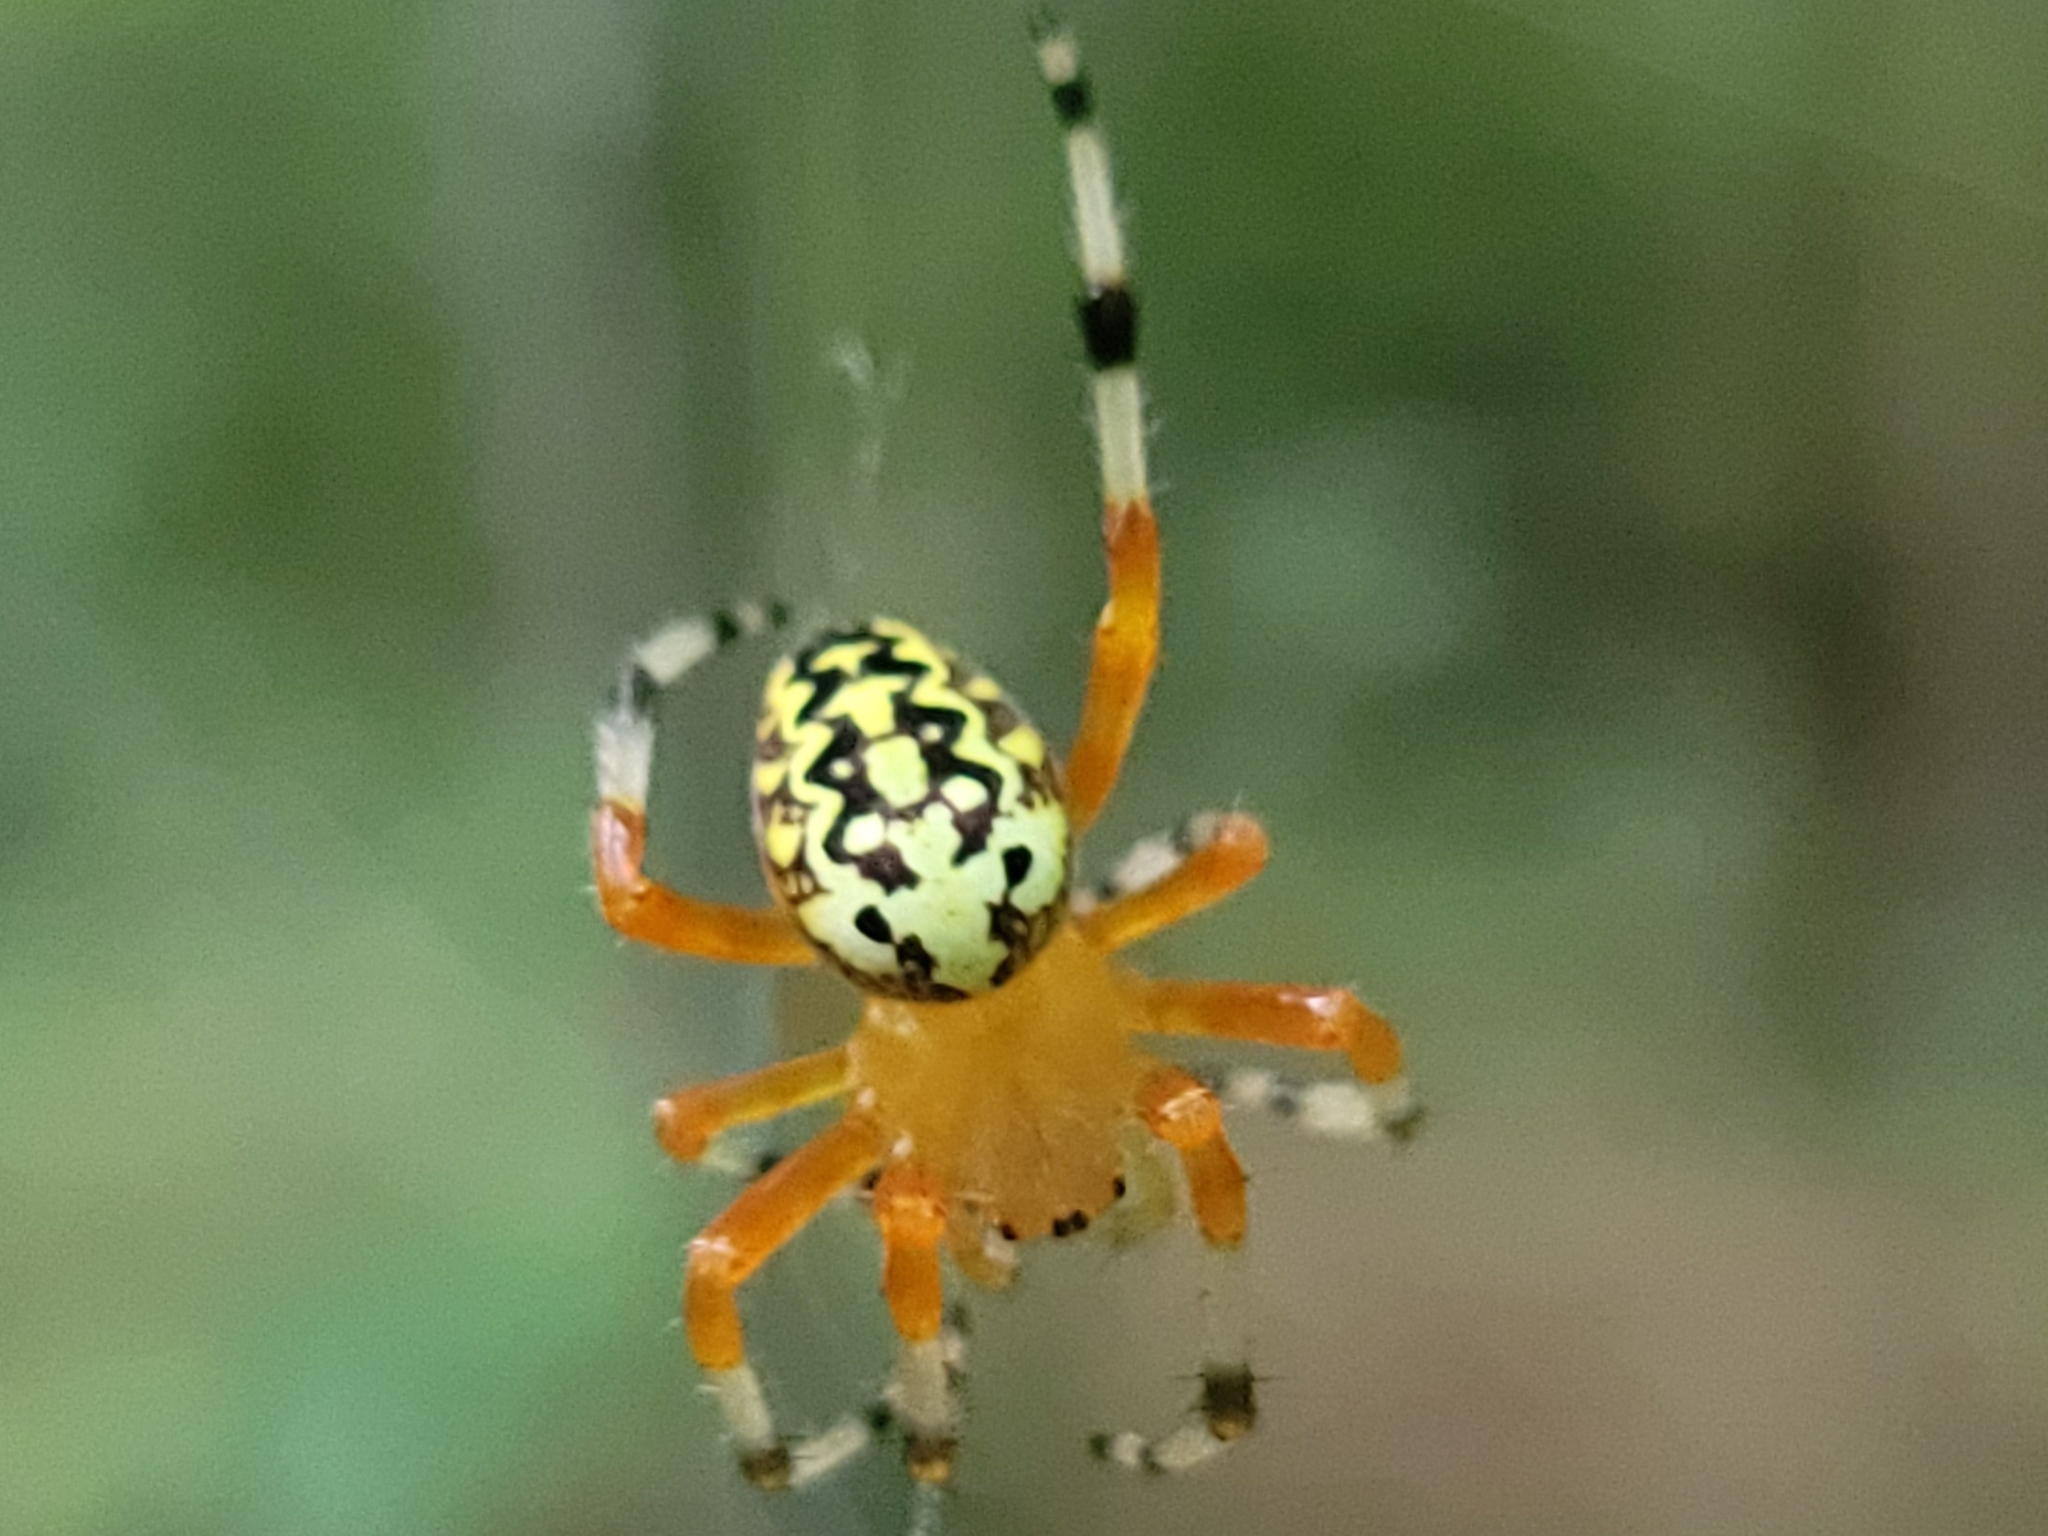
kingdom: Animalia
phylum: Arthropoda
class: Arachnida
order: Araneae
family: Araneidae
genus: Araneus
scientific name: Araneus marmoreus
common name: Marbled orbweaver
